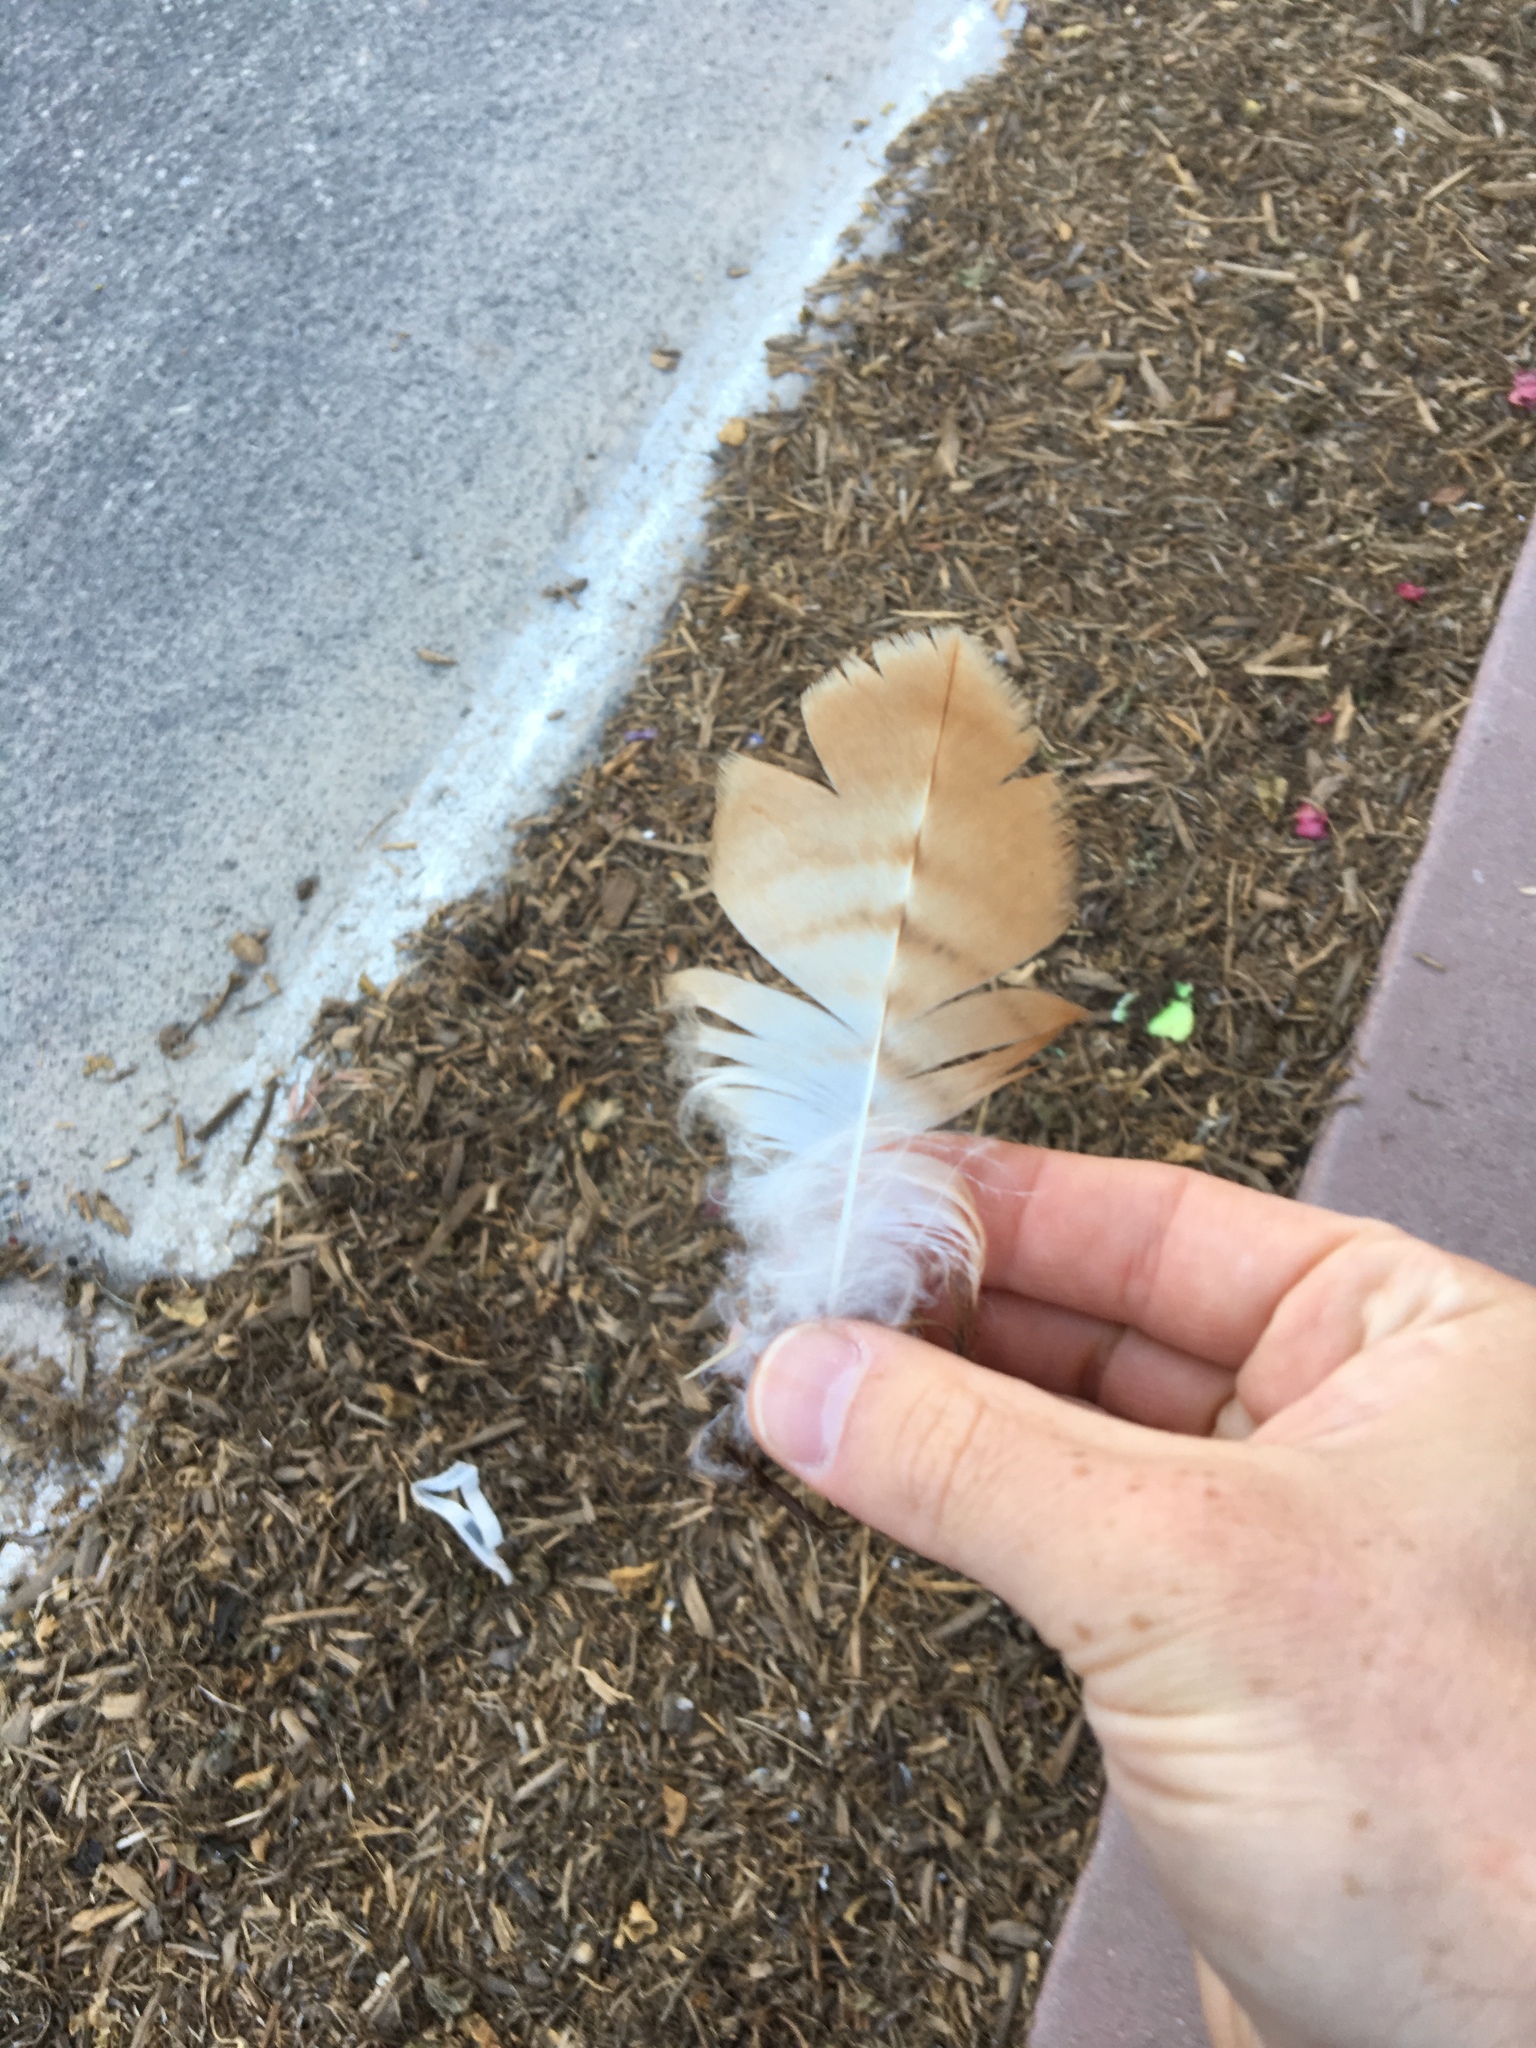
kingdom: Animalia
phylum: Chordata
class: Aves
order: Accipitriformes
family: Accipitridae
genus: Buteo
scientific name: Buteo jamaicensis
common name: Red-tailed hawk
